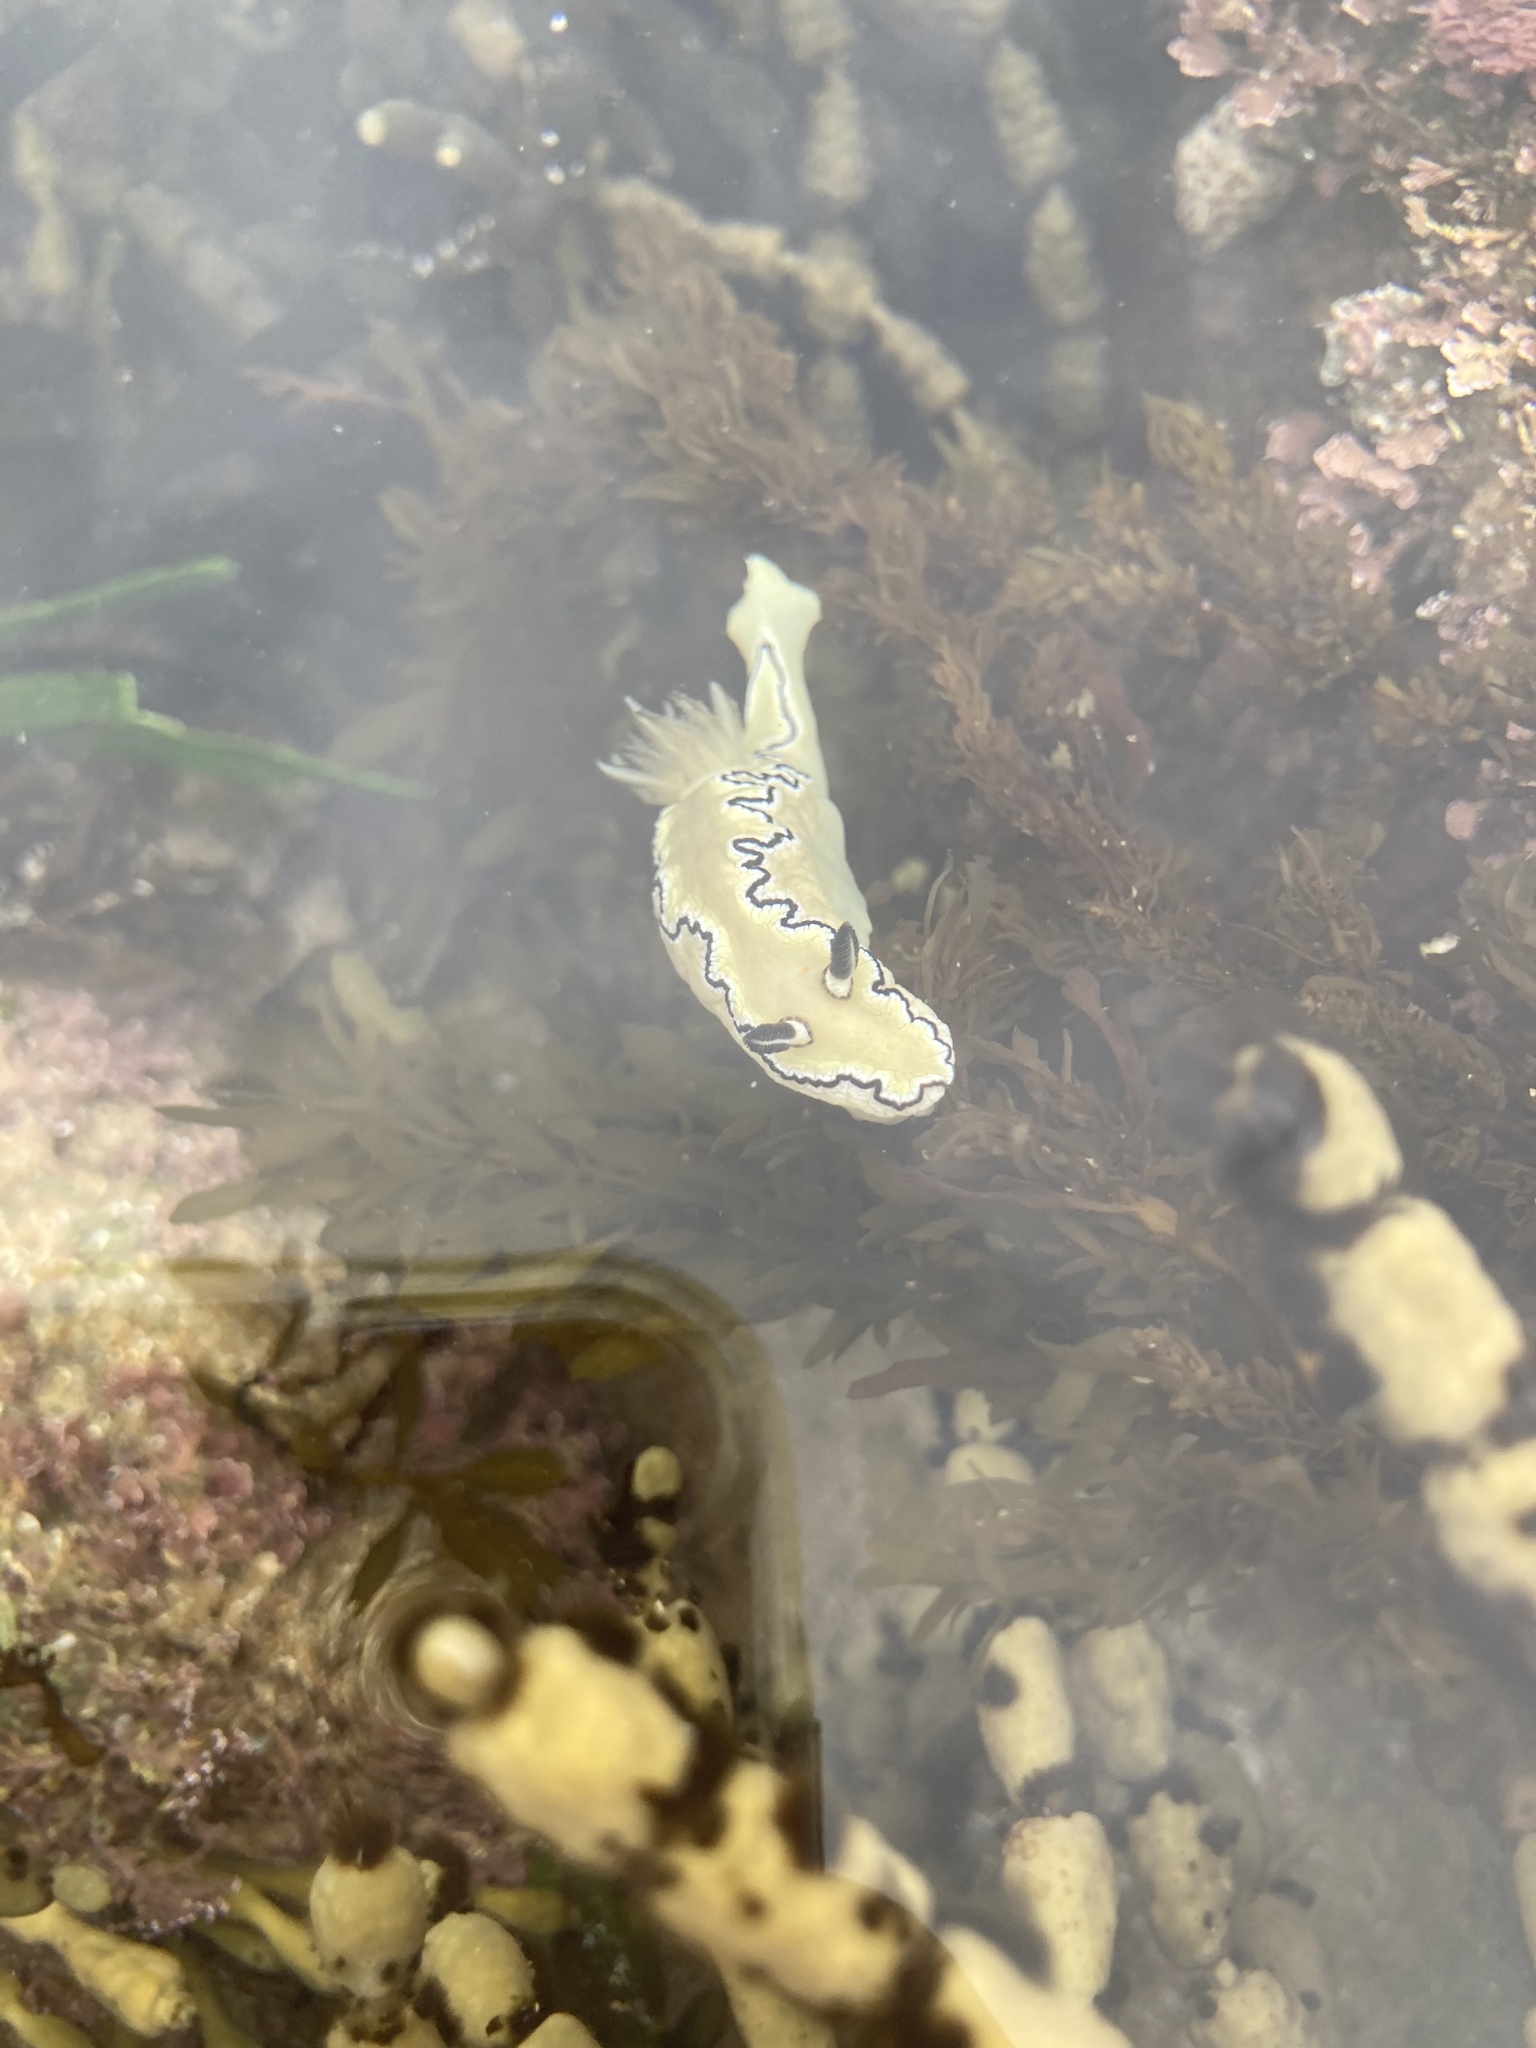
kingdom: Animalia
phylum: Mollusca
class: Gastropoda
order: Nudibranchia
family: Chromodorididae
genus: Doriprismatica
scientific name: Doriprismatica atromarginata
